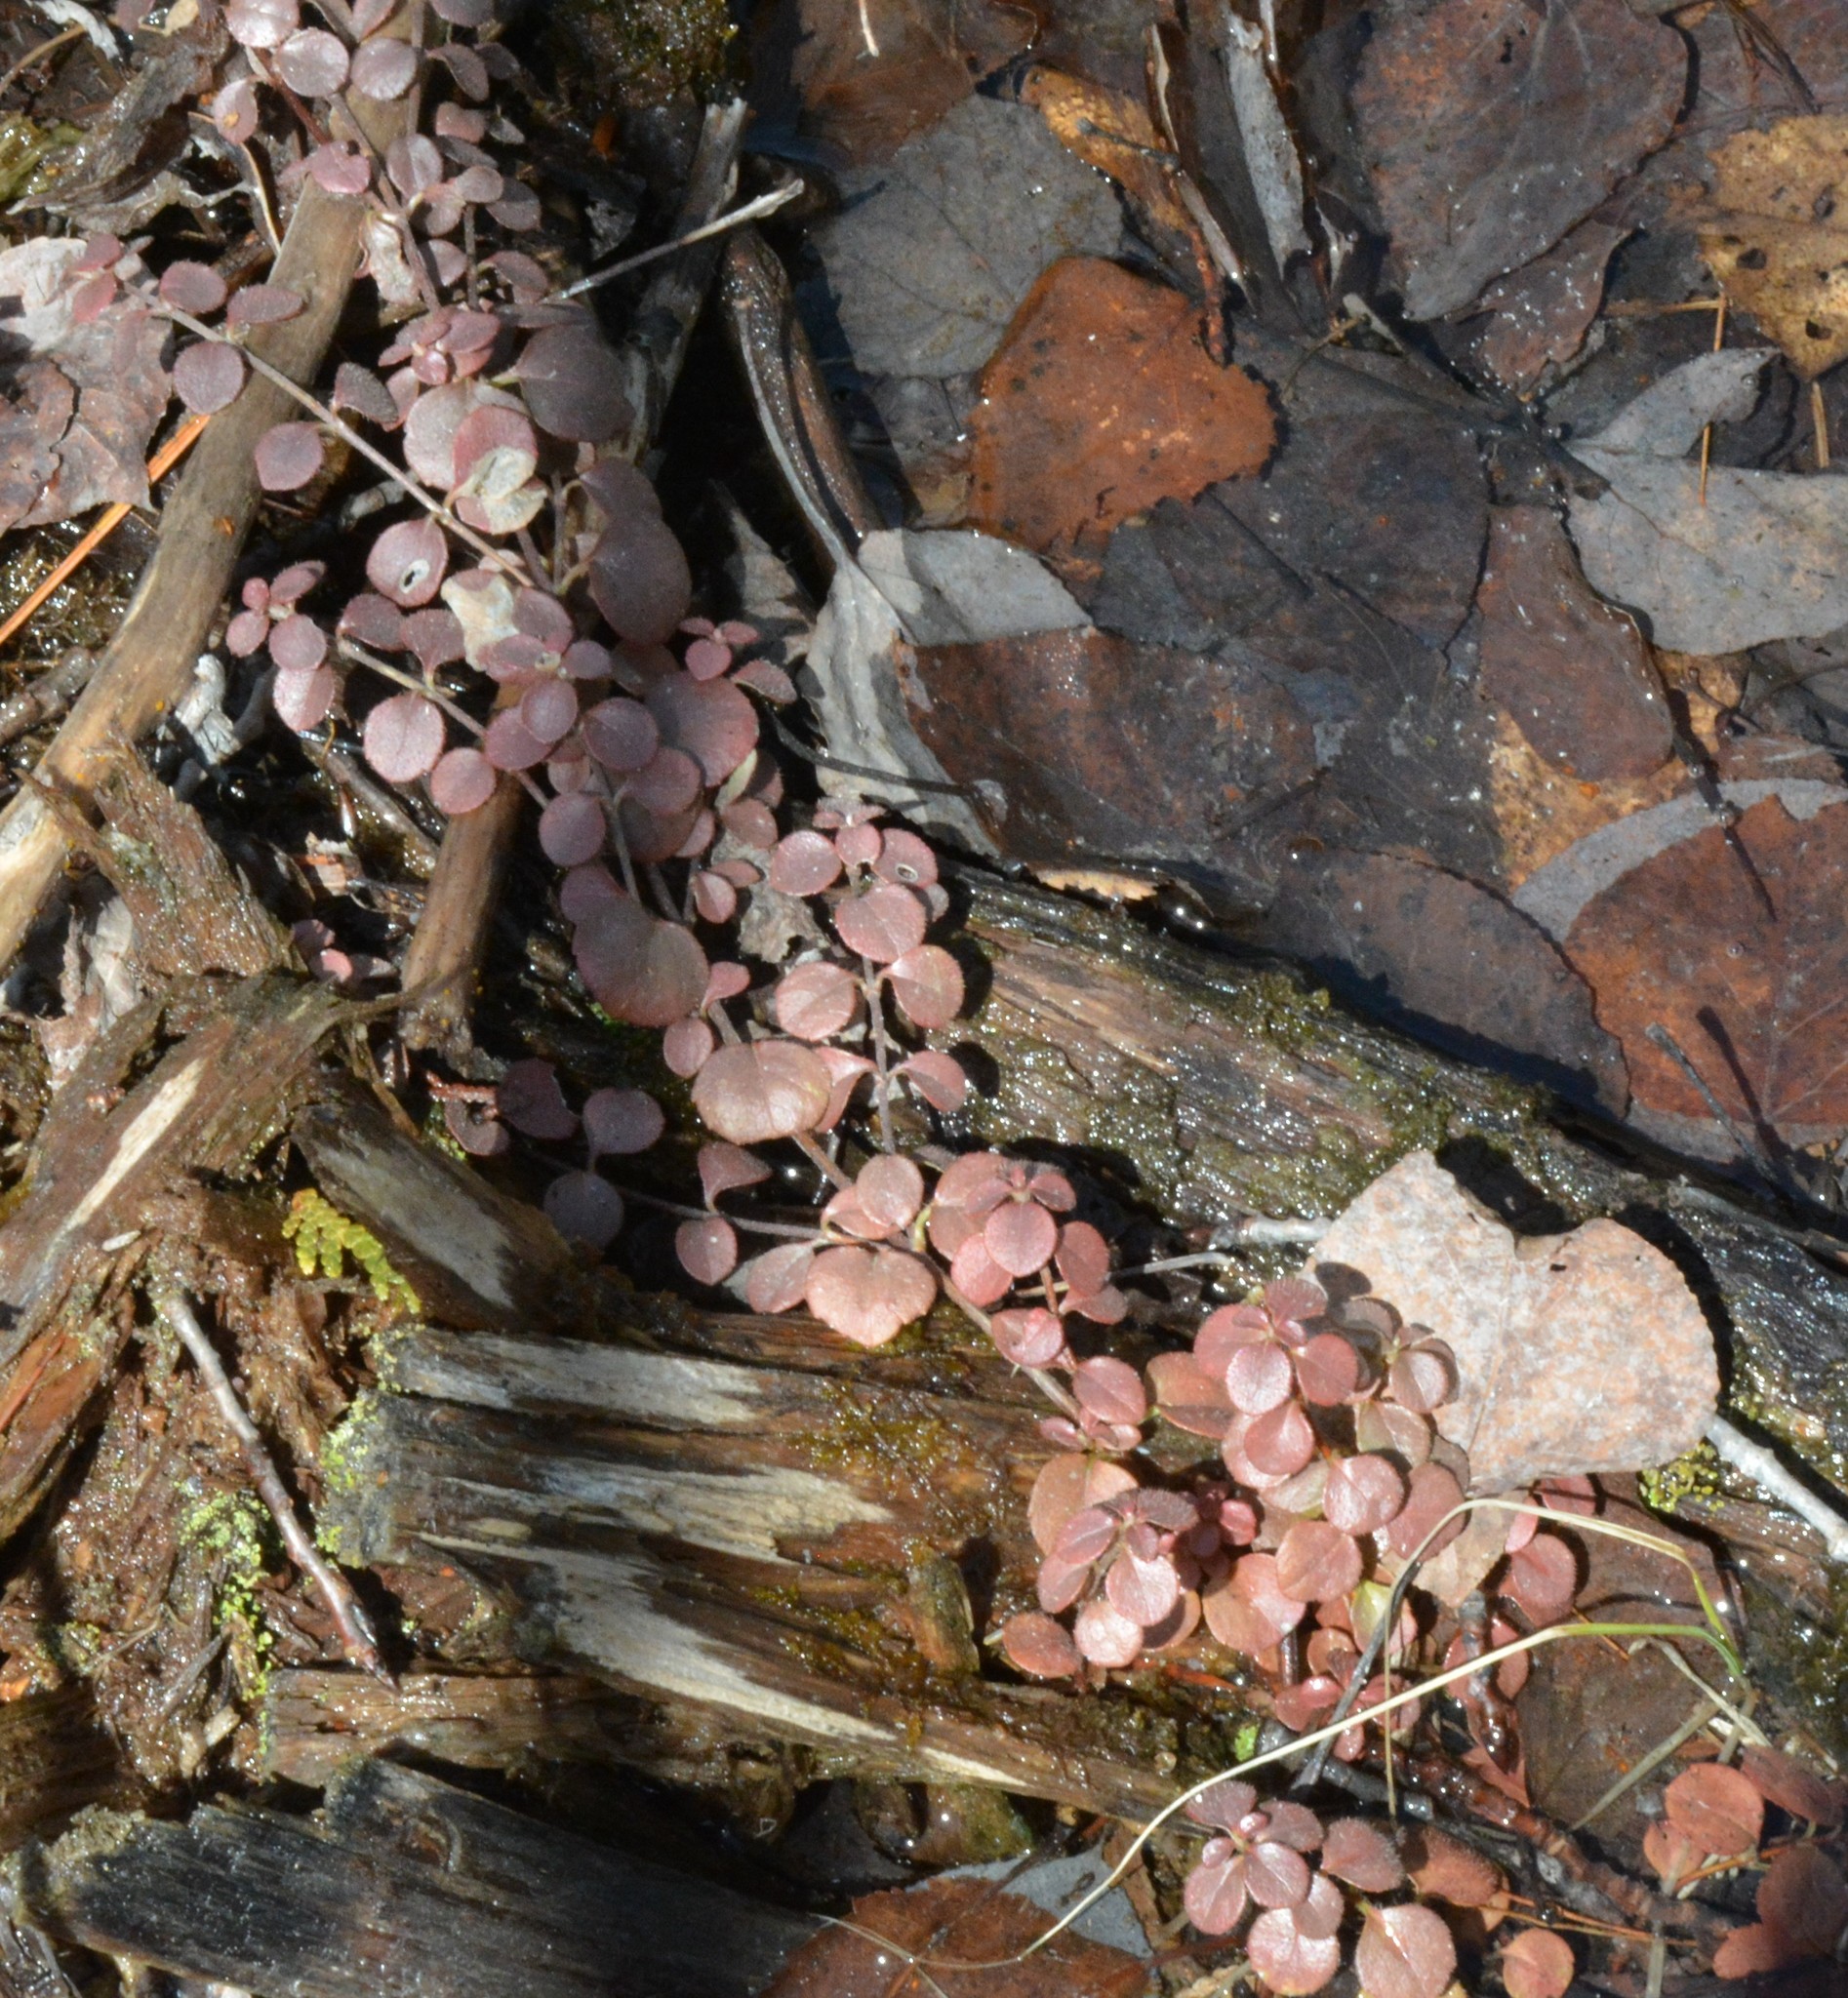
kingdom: Plantae
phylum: Tracheophyta
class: Magnoliopsida
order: Dipsacales
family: Caprifoliaceae
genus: Linnaea
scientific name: Linnaea borealis
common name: Twinflower
